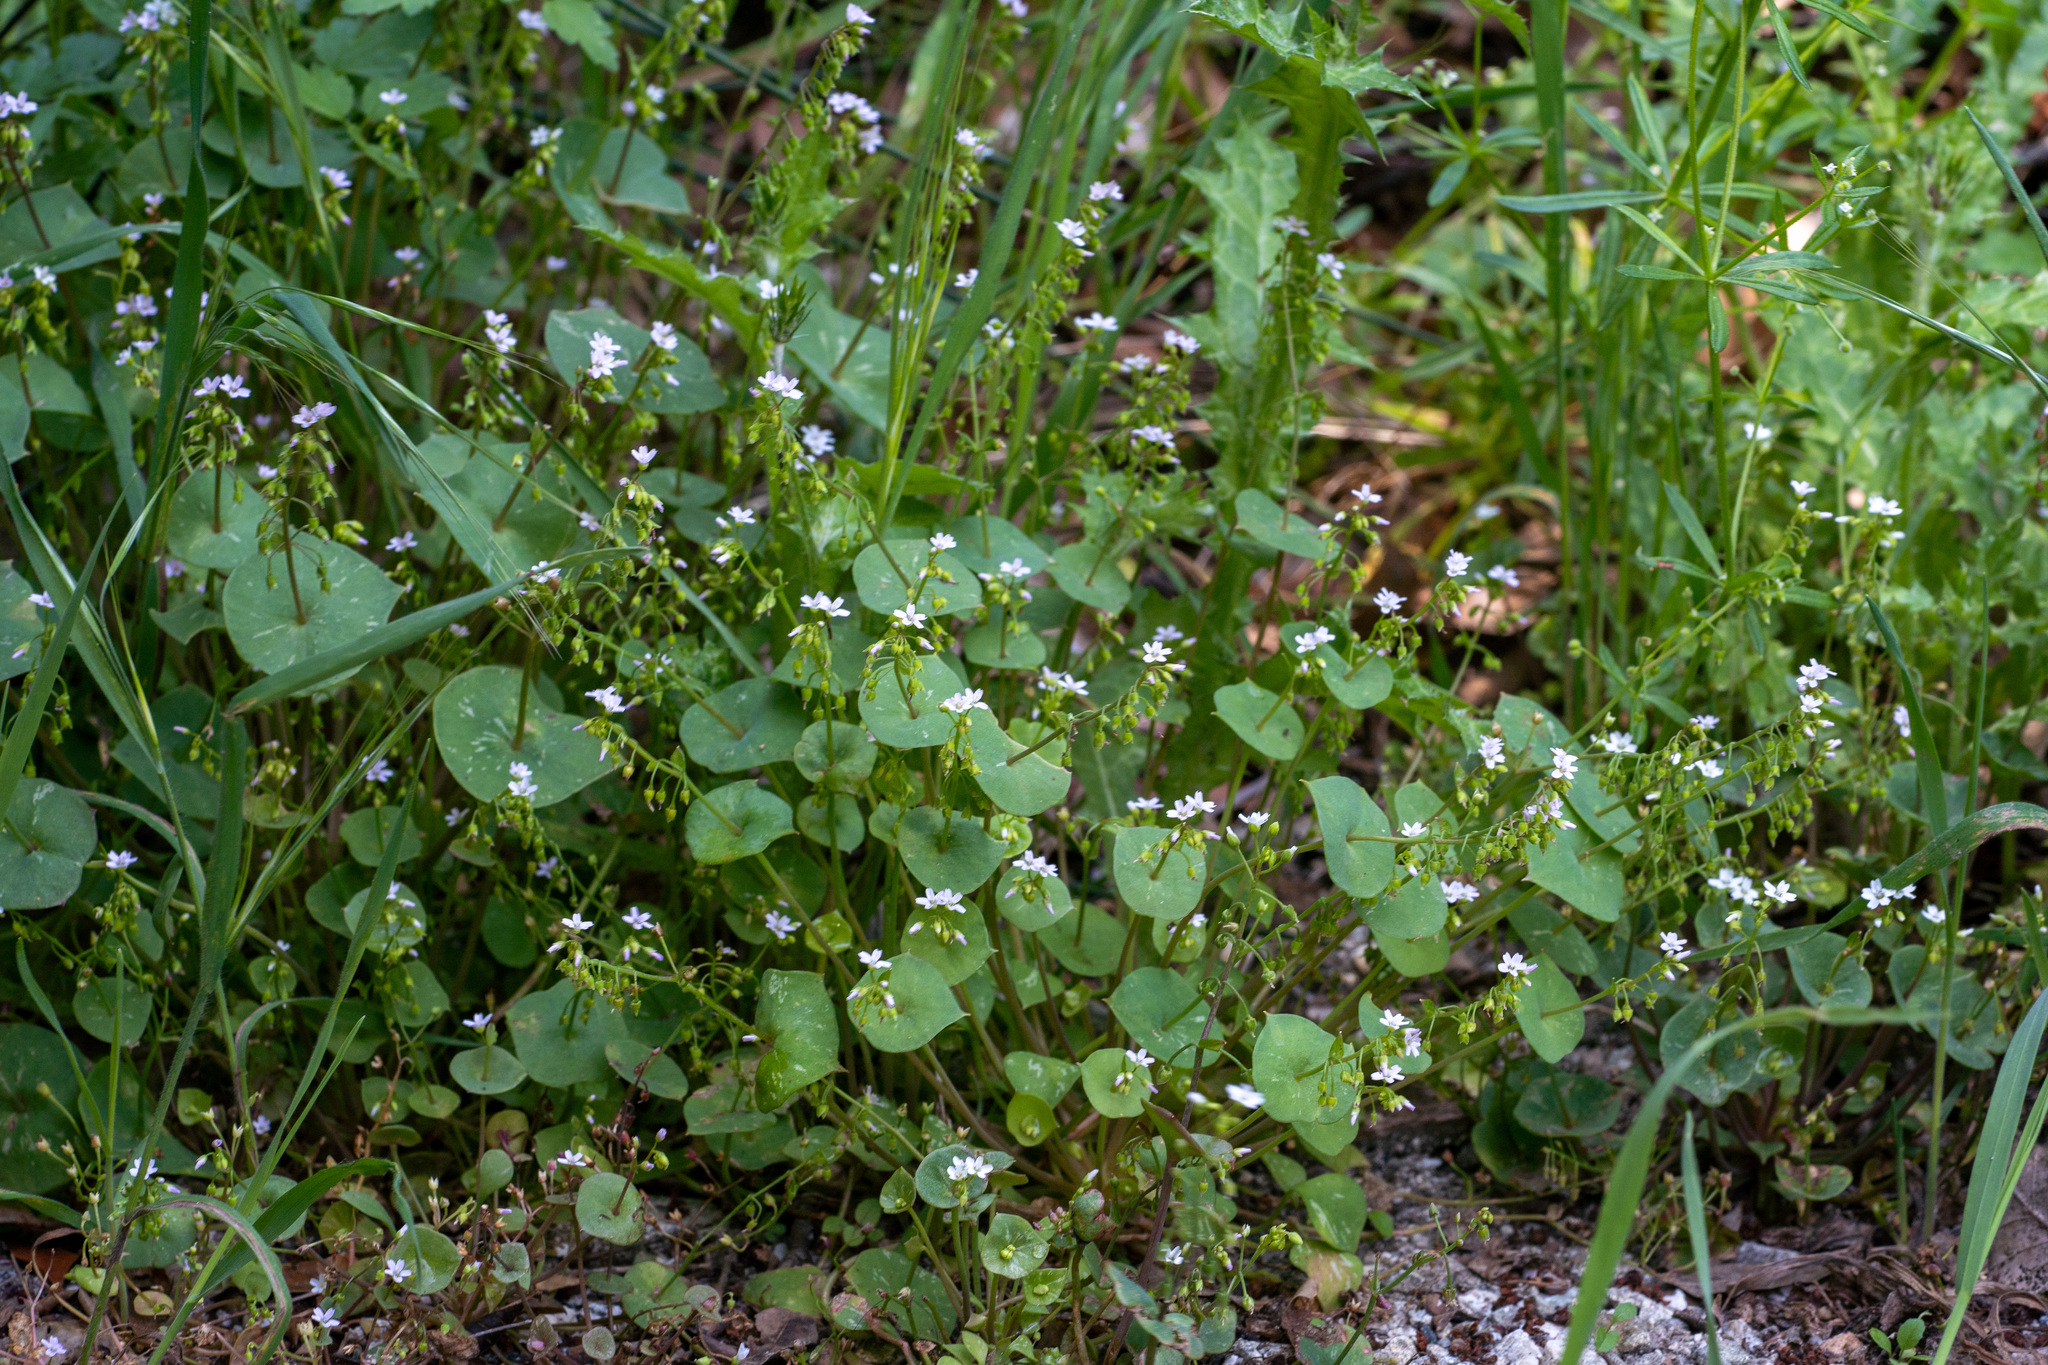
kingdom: Plantae
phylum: Tracheophyta
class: Magnoliopsida
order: Caryophyllales
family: Montiaceae
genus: Claytonia
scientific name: Claytonia perfoliata
